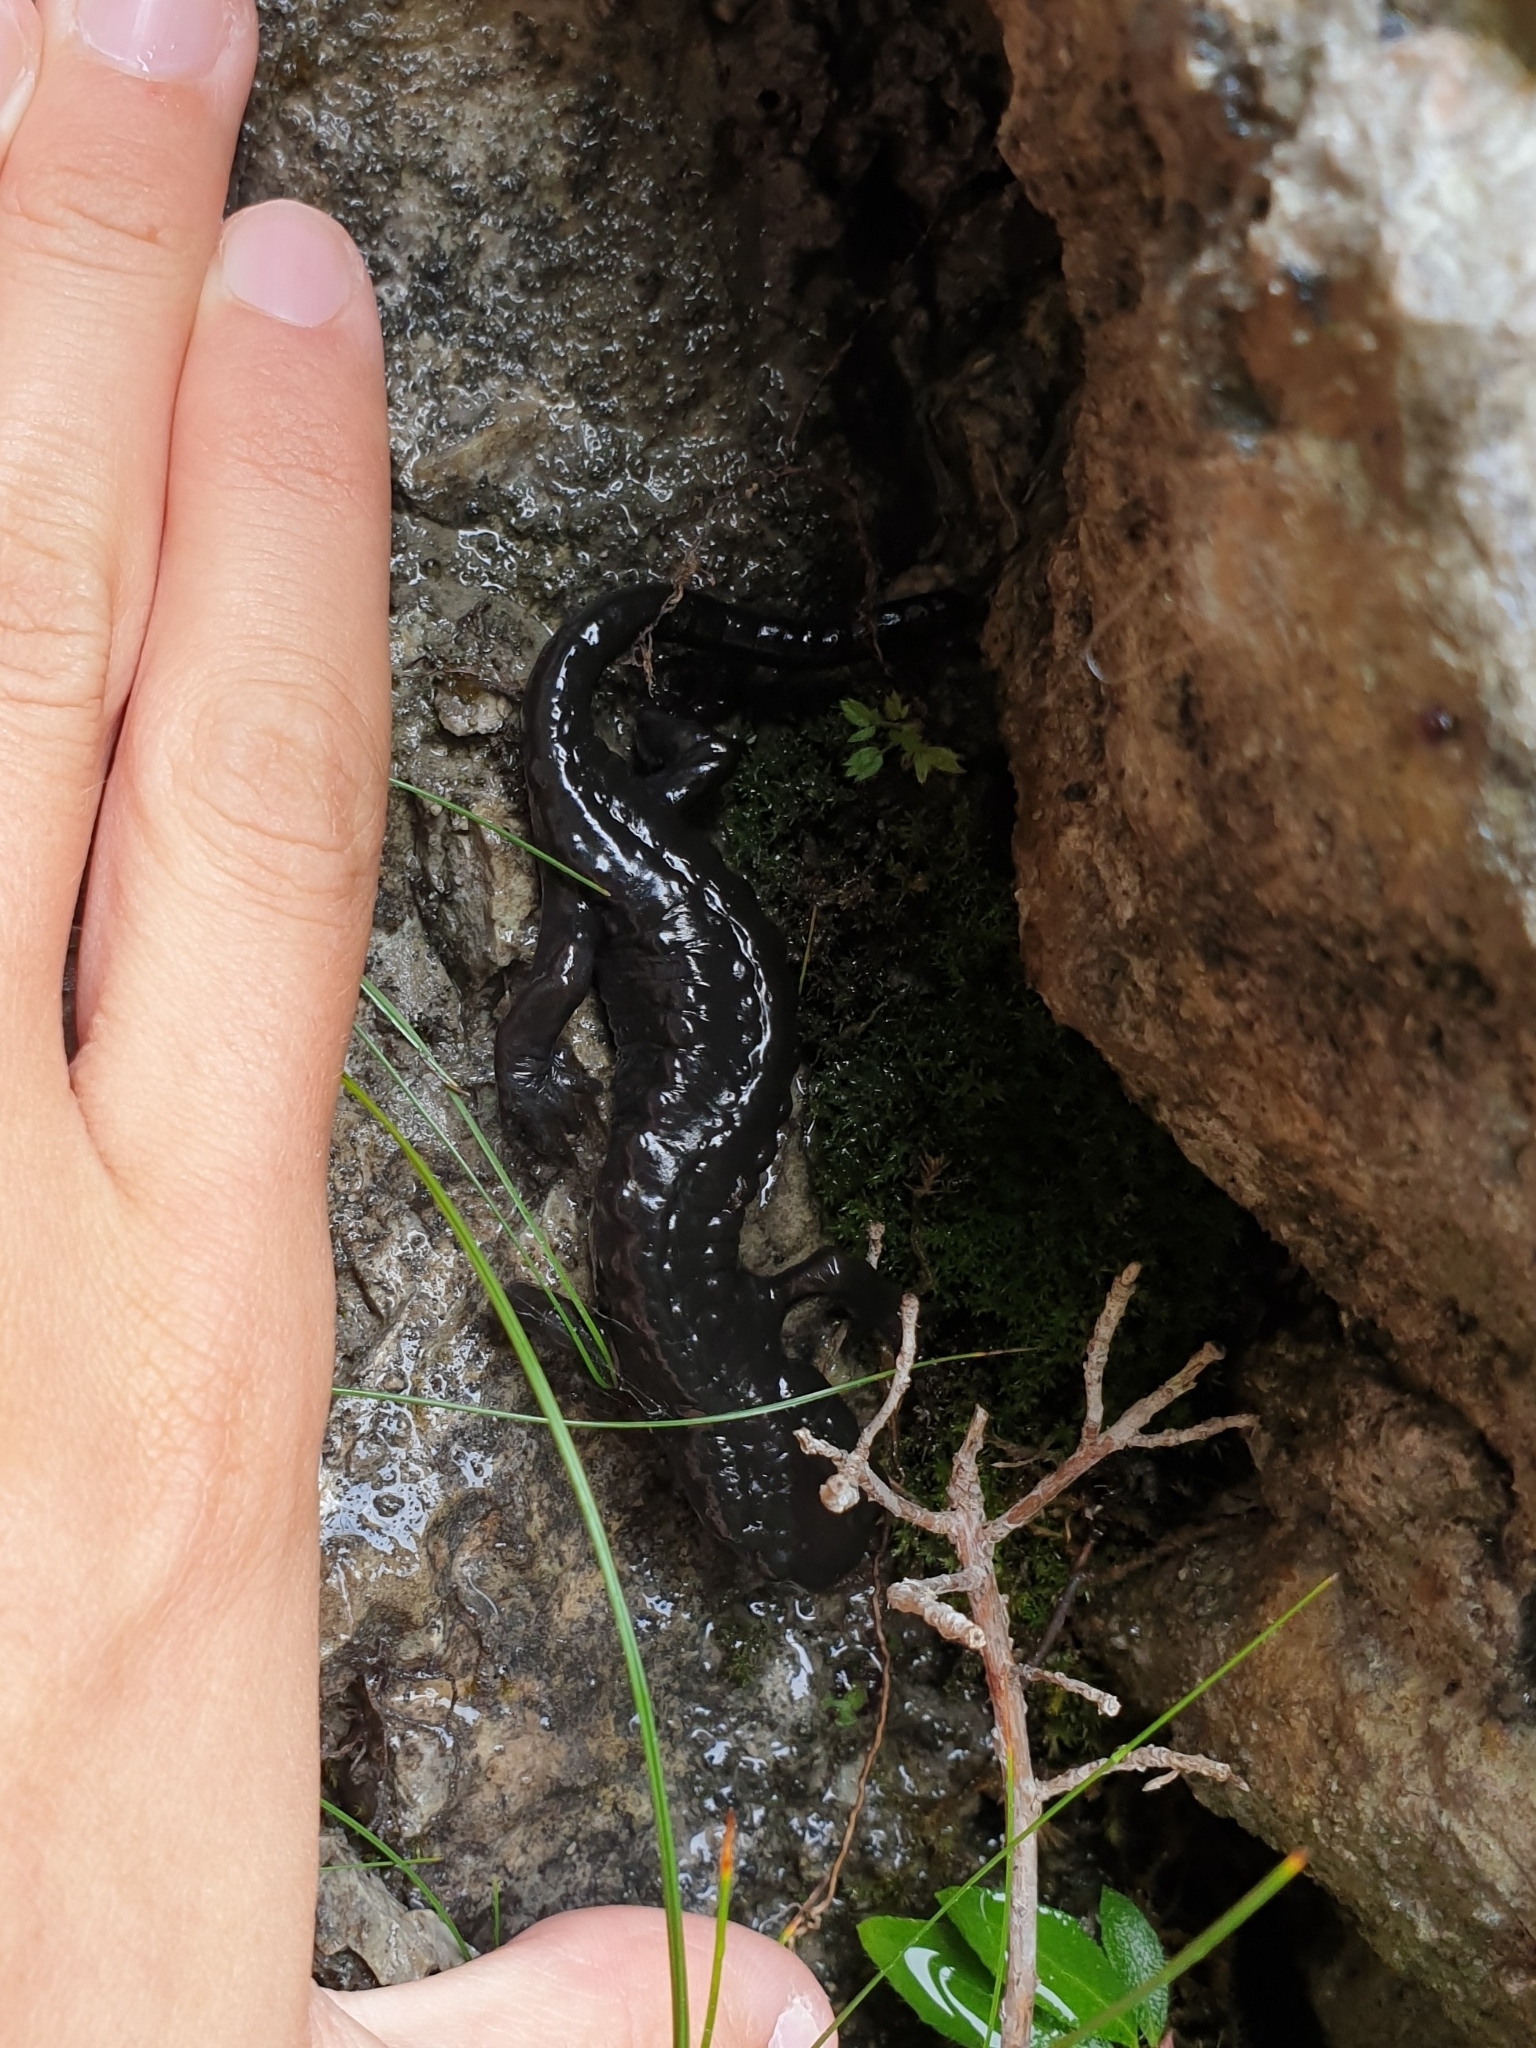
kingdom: Animalia
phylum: Chordata
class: Amphibia
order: Caudata
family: Salamandridae
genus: Salamandra
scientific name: Salamandra atra
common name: Alpine salamander
